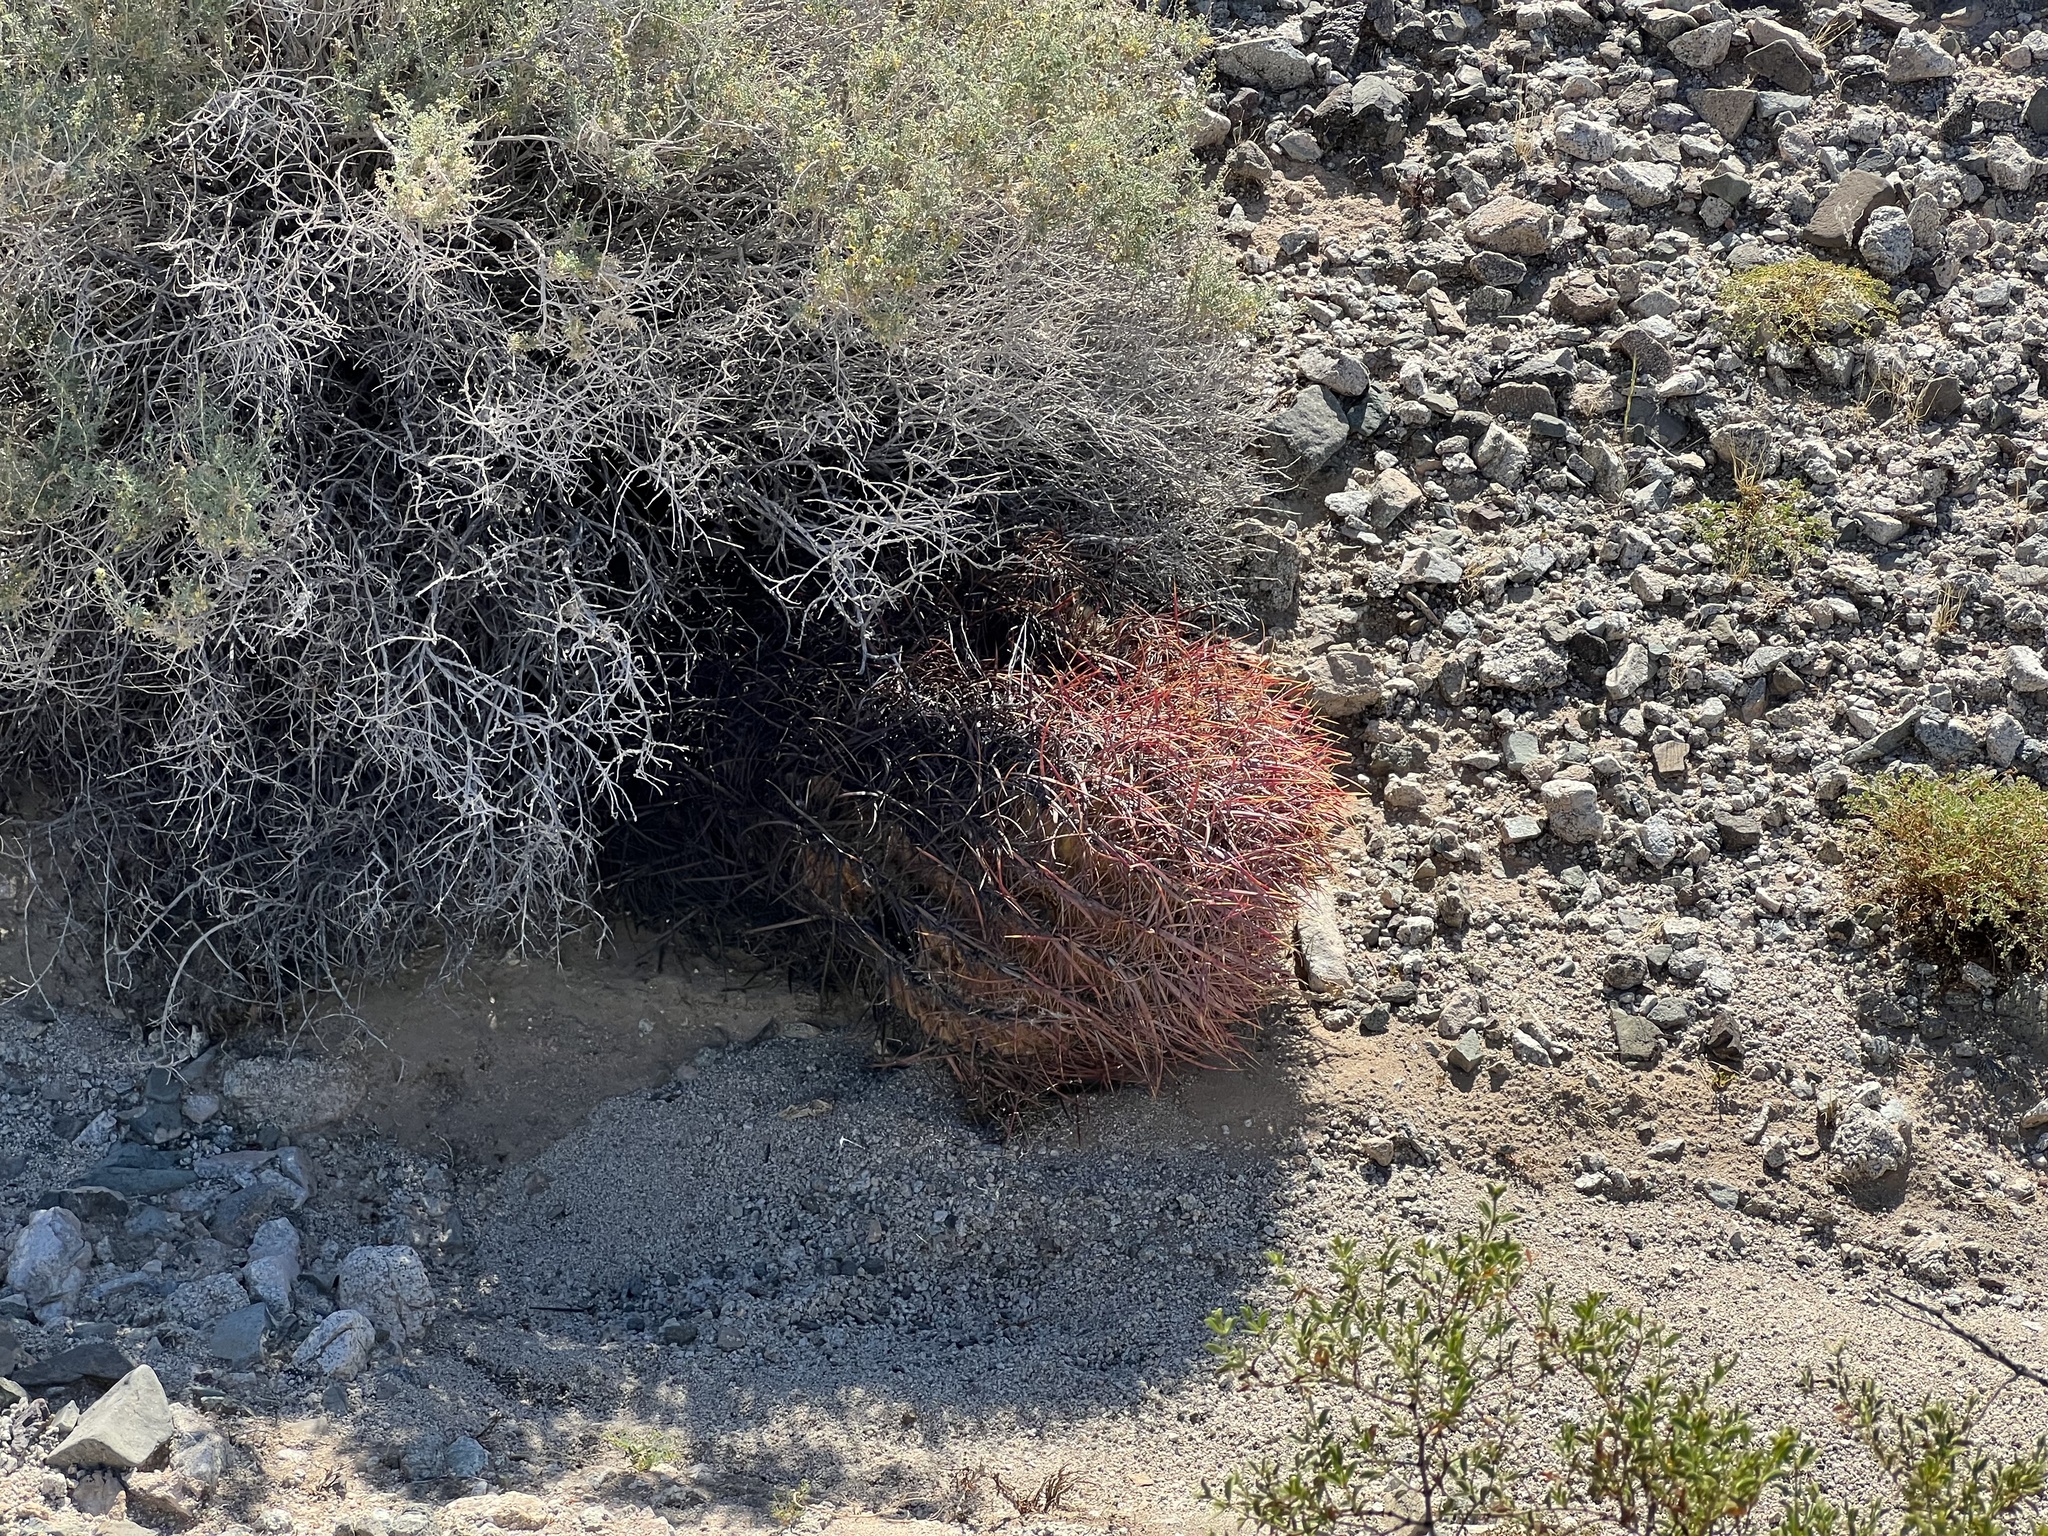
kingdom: Plantae
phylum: Tracheophyta
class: Magnoliopsida
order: Caryophyllales
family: Cactaceae
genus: Ferocactus
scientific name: Ferocactus cylindraceus
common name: California barrel cactus
